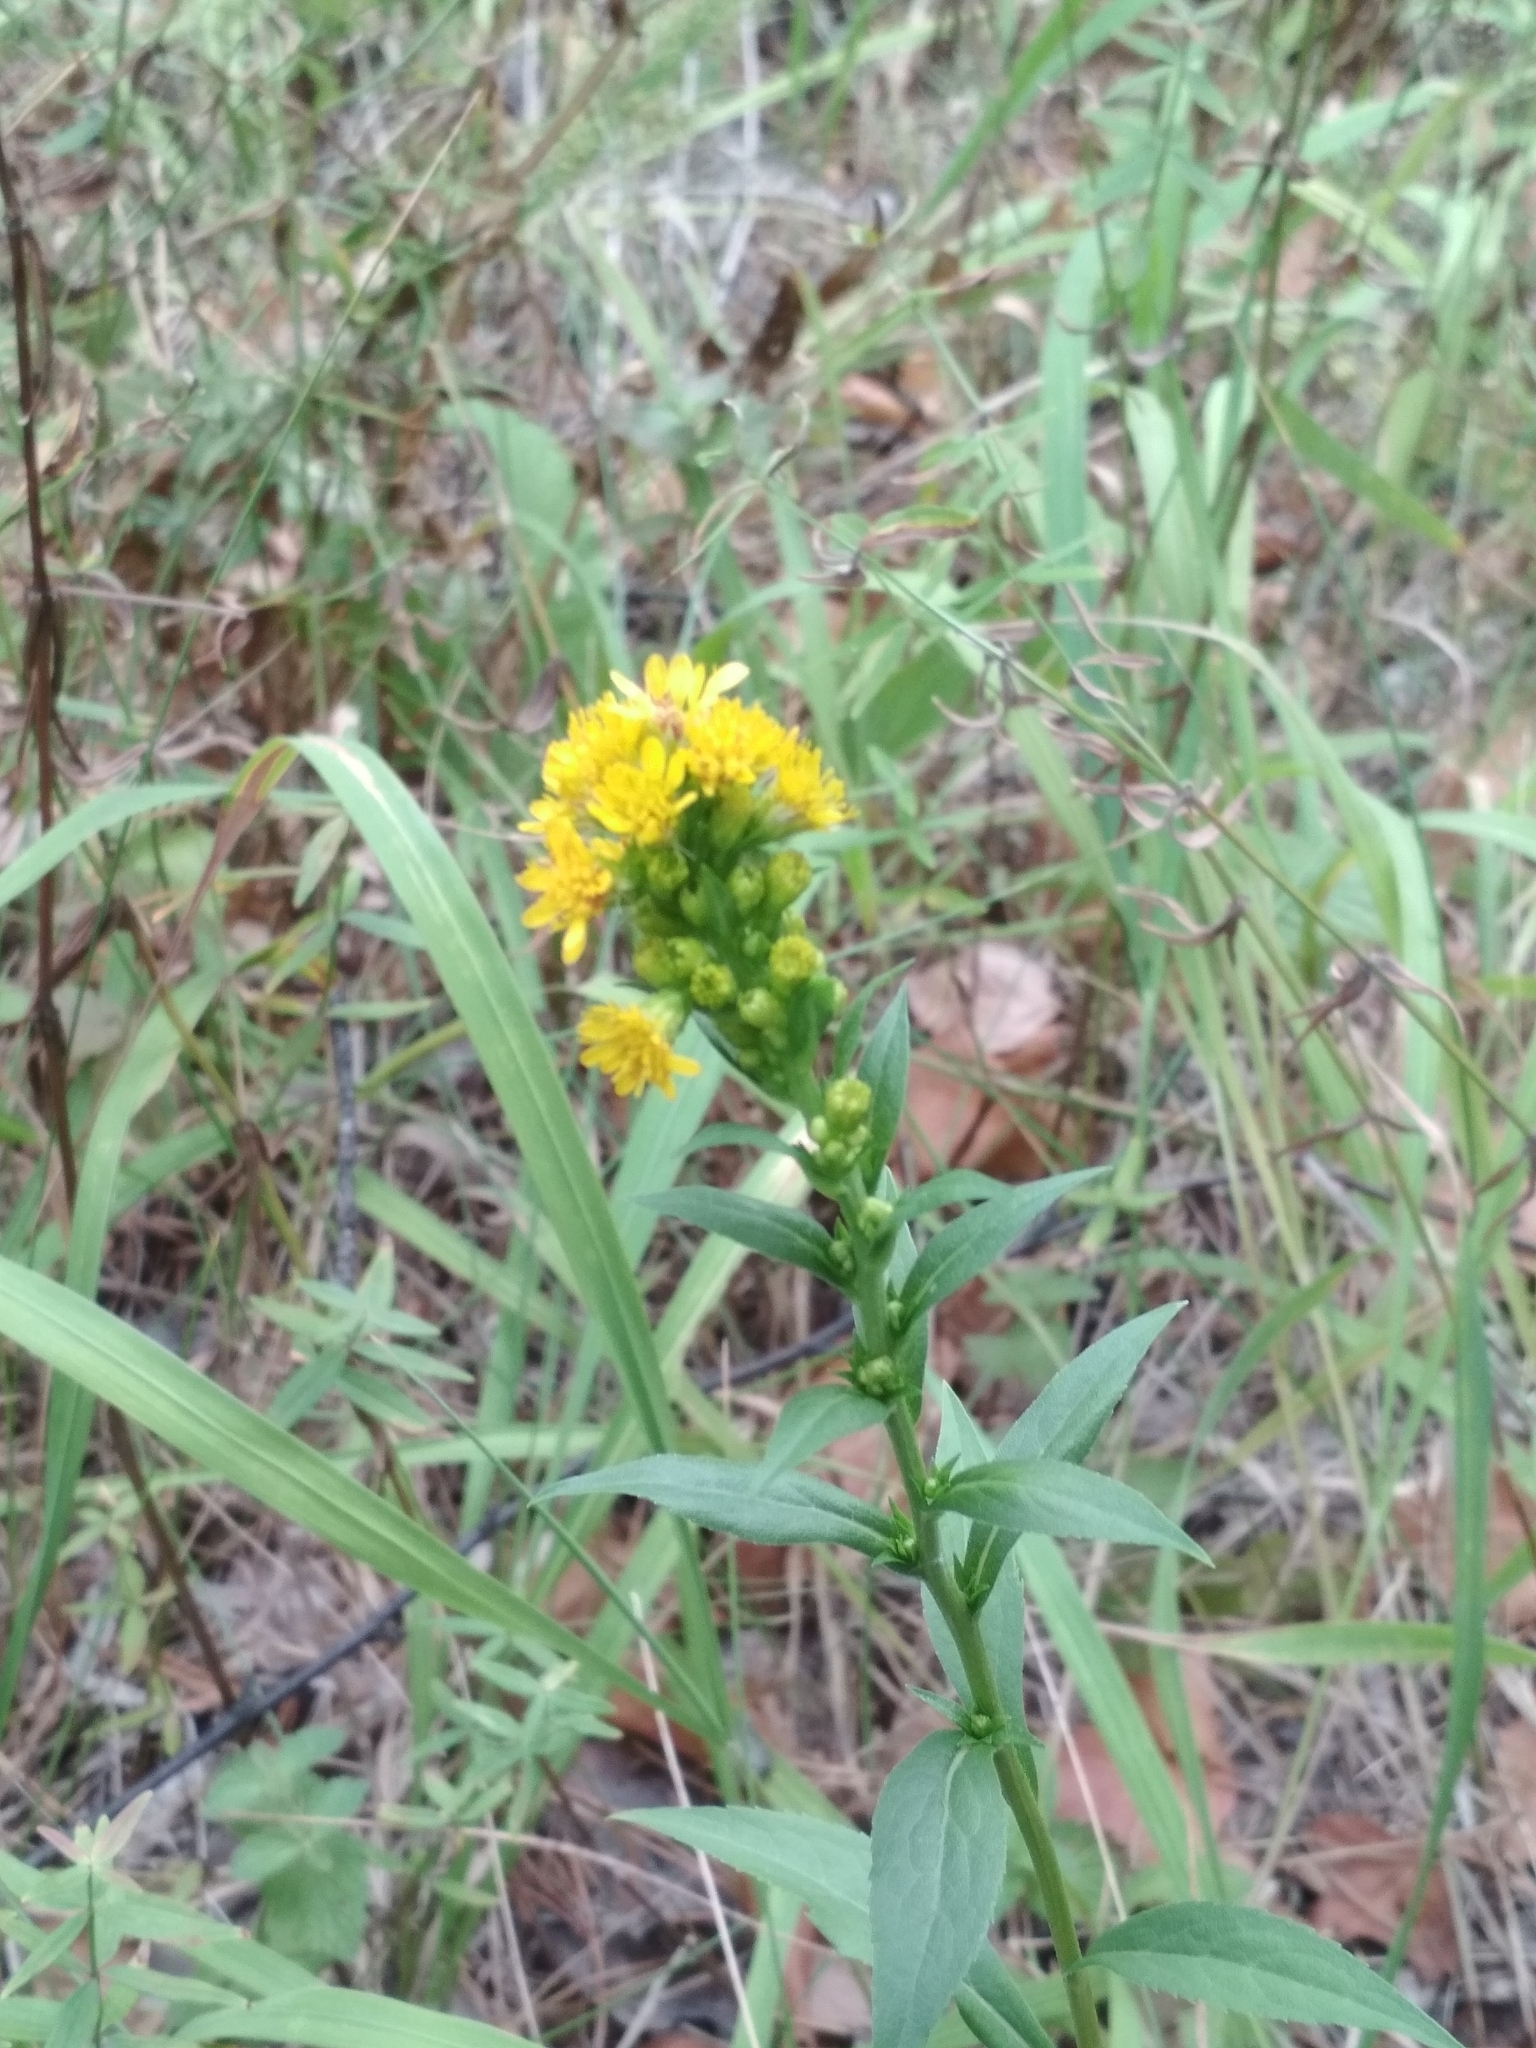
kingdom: Plantae
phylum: Tracheophyta
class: Magnoliopsida
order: Asterales
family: Asteraceae
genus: Solidago
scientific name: Solidago virgaurea
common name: Goldenrod
